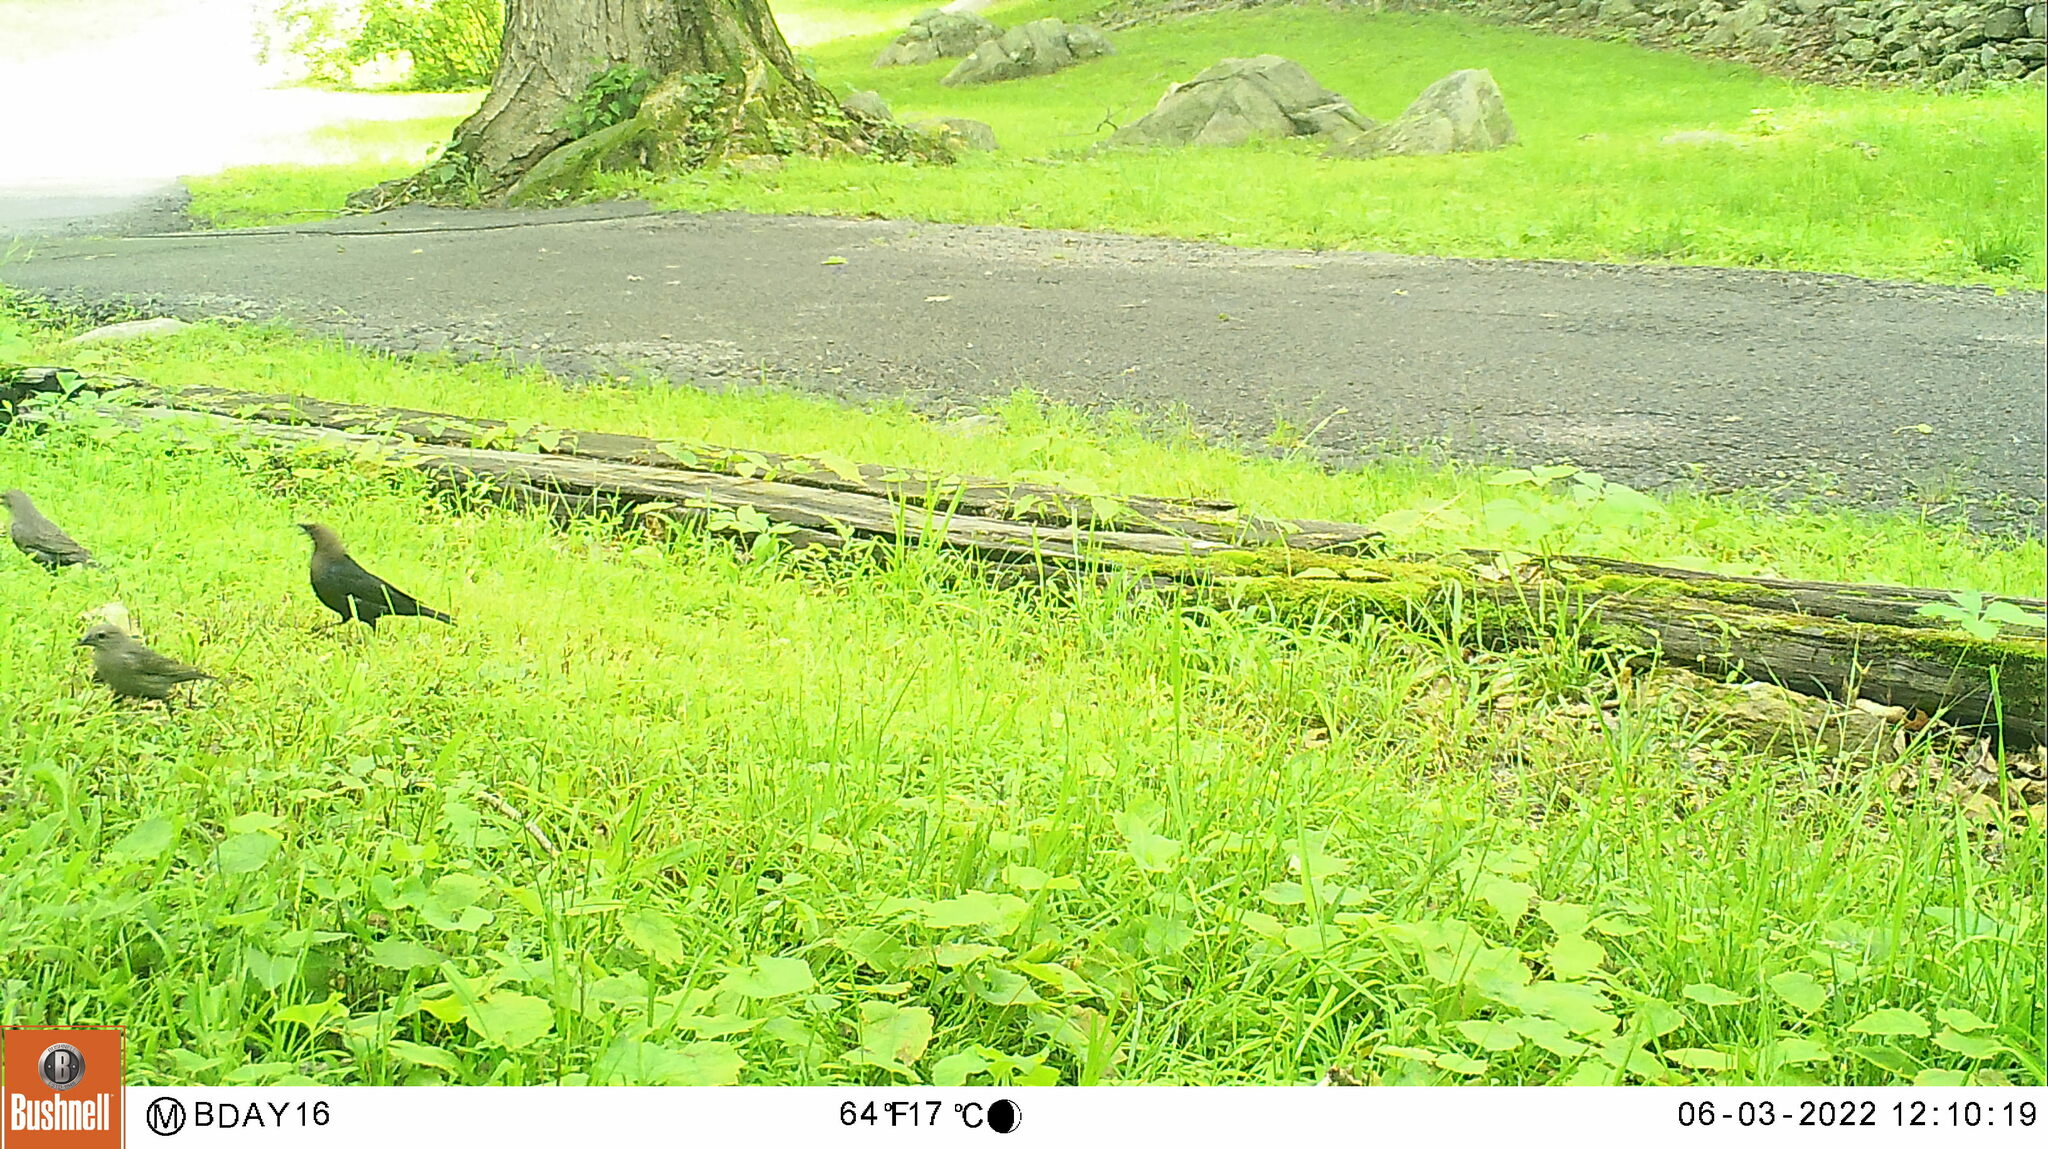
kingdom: Animalia
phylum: Chordata
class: Aves
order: Passeriformes
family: Icteridae
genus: Quiscalus
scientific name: Quiscalus quiscula
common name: Common grackle
